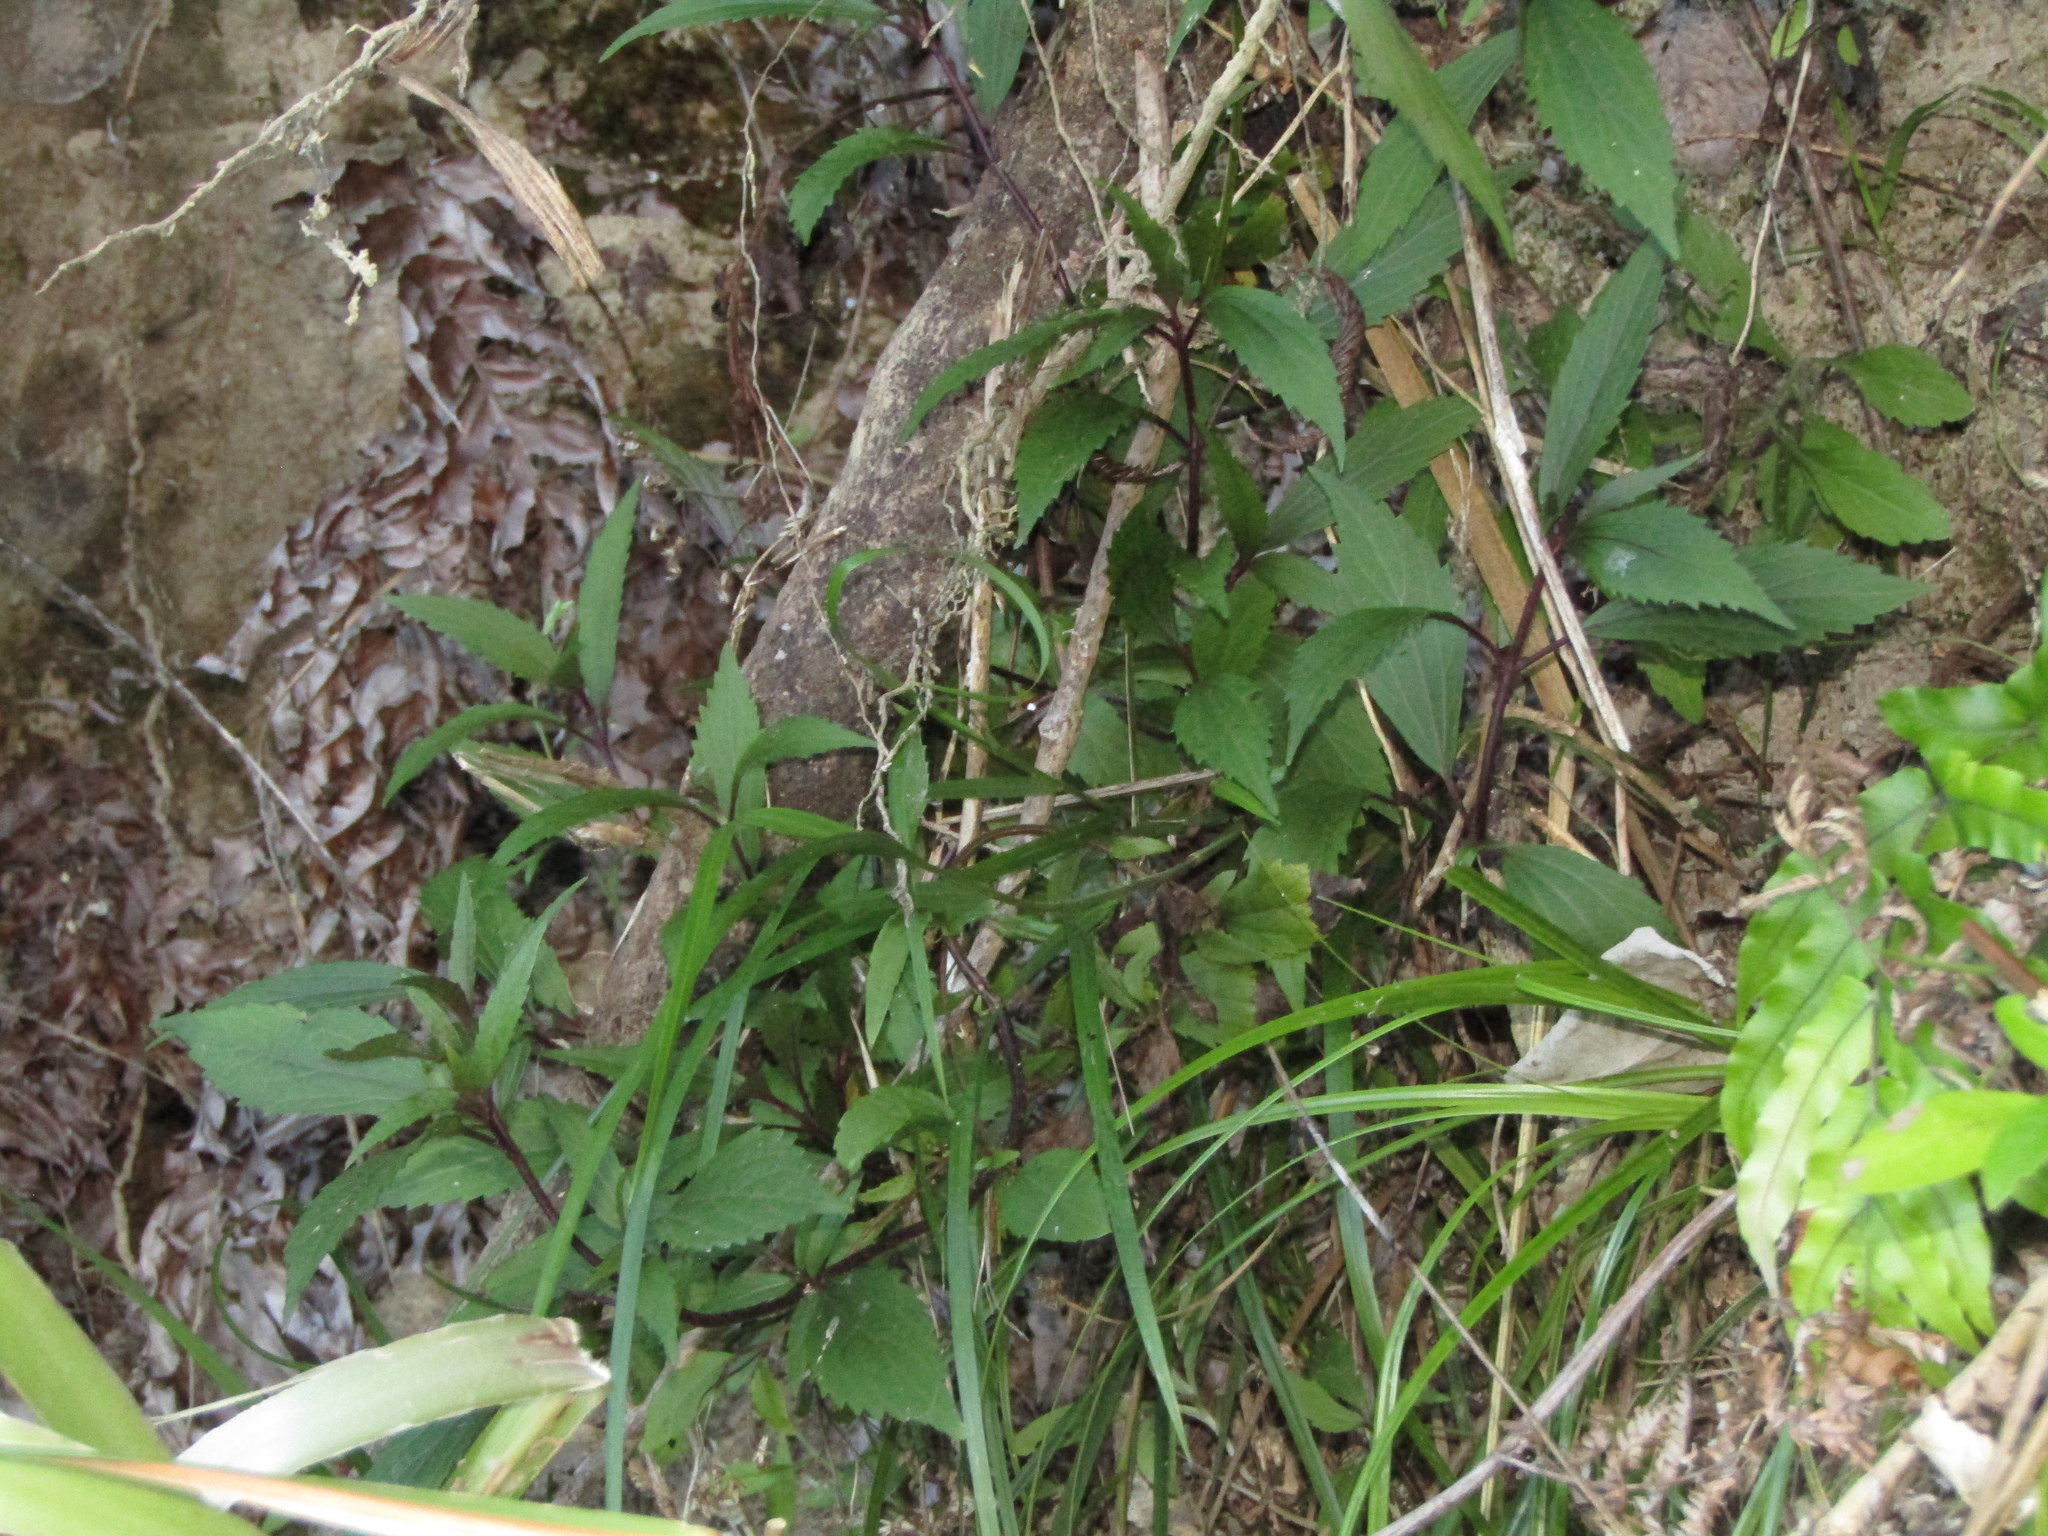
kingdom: Plantae
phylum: Tracheophyta
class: Magnoliopsida
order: Asterales
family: Asteraceae
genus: Ageratina
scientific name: Ageratina riparia
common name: Creeping croftonweed
